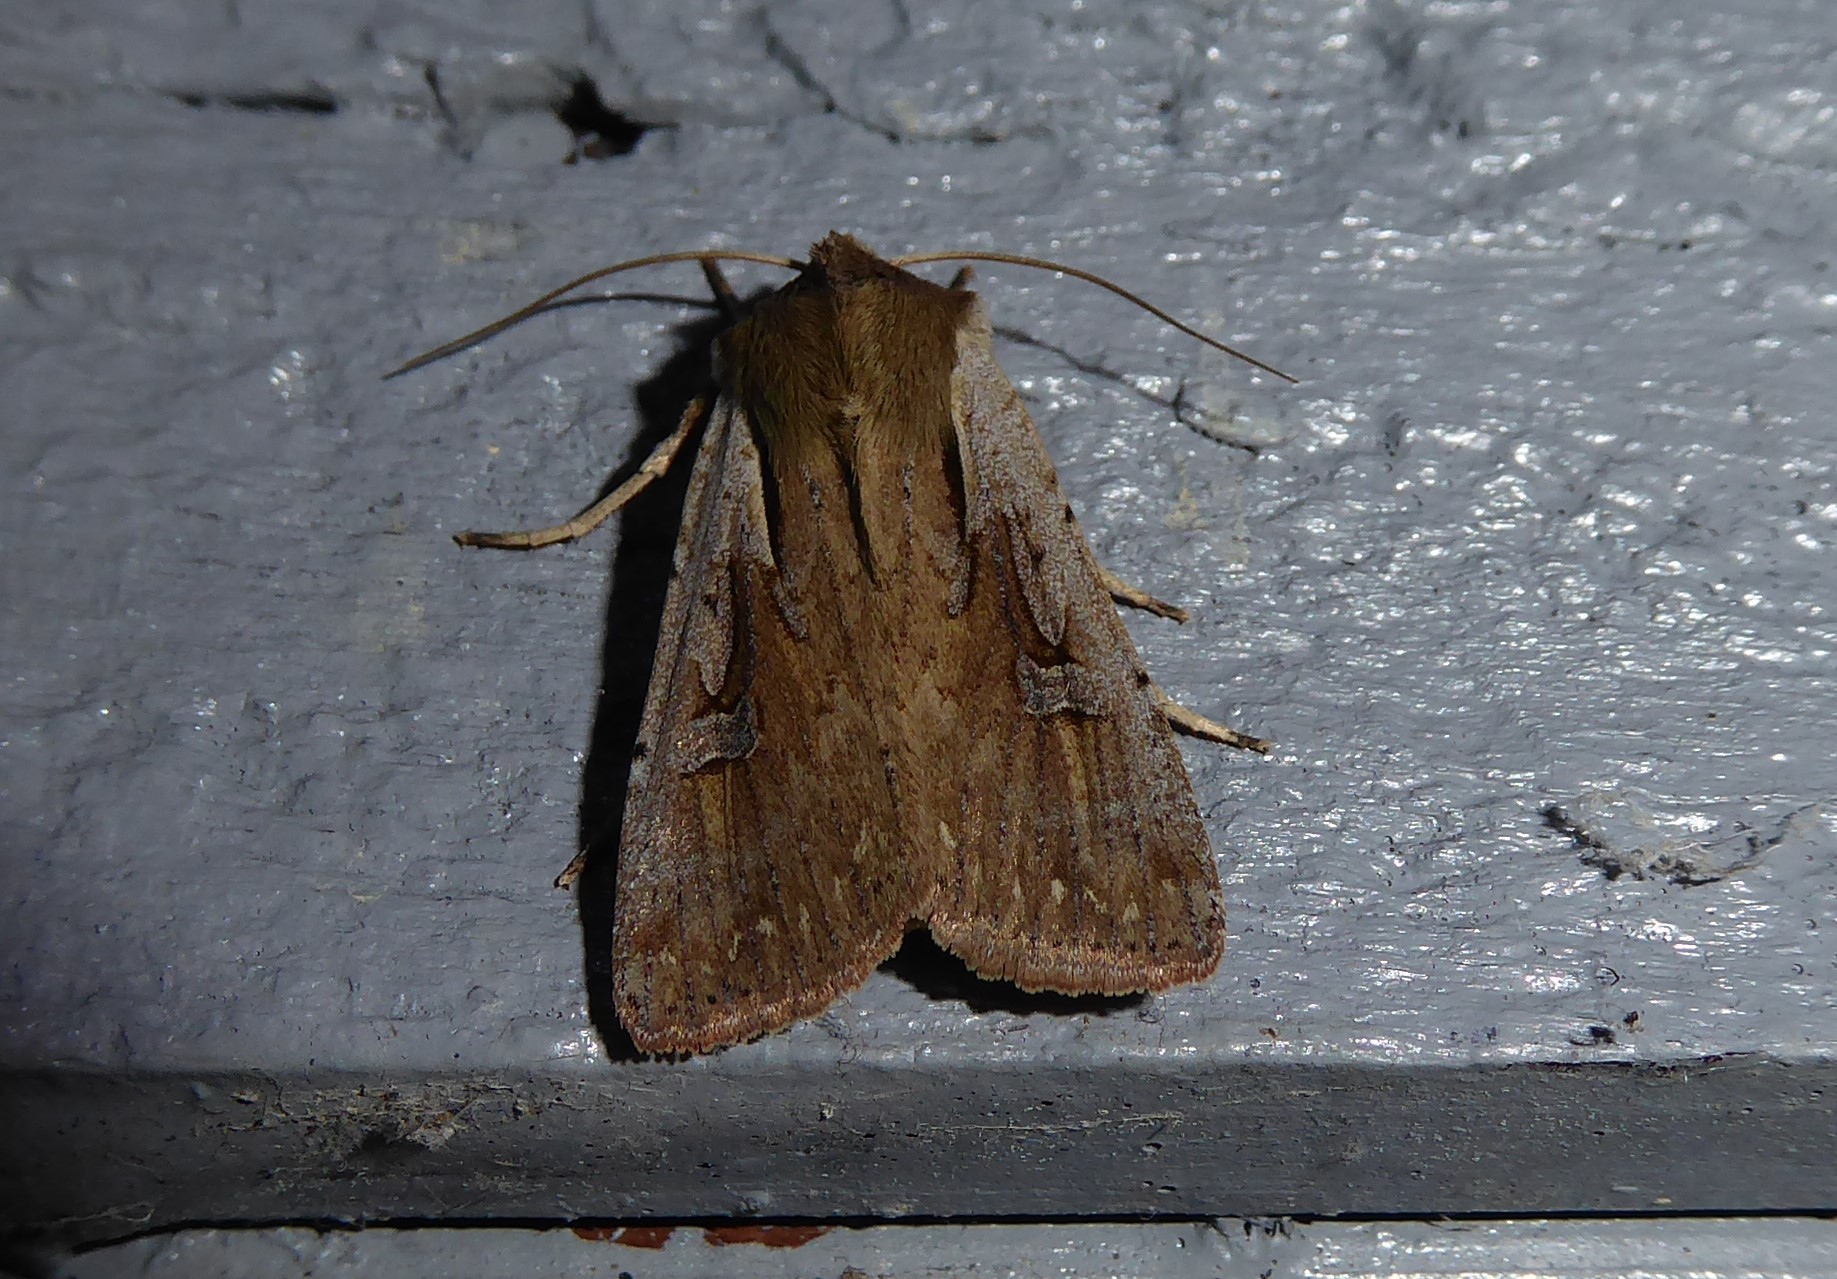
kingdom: Animalia
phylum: Arthropoda
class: Insecta
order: Lepidoptera
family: Noctuidae
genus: Ichneutica
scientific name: Ichneutica atristriga
